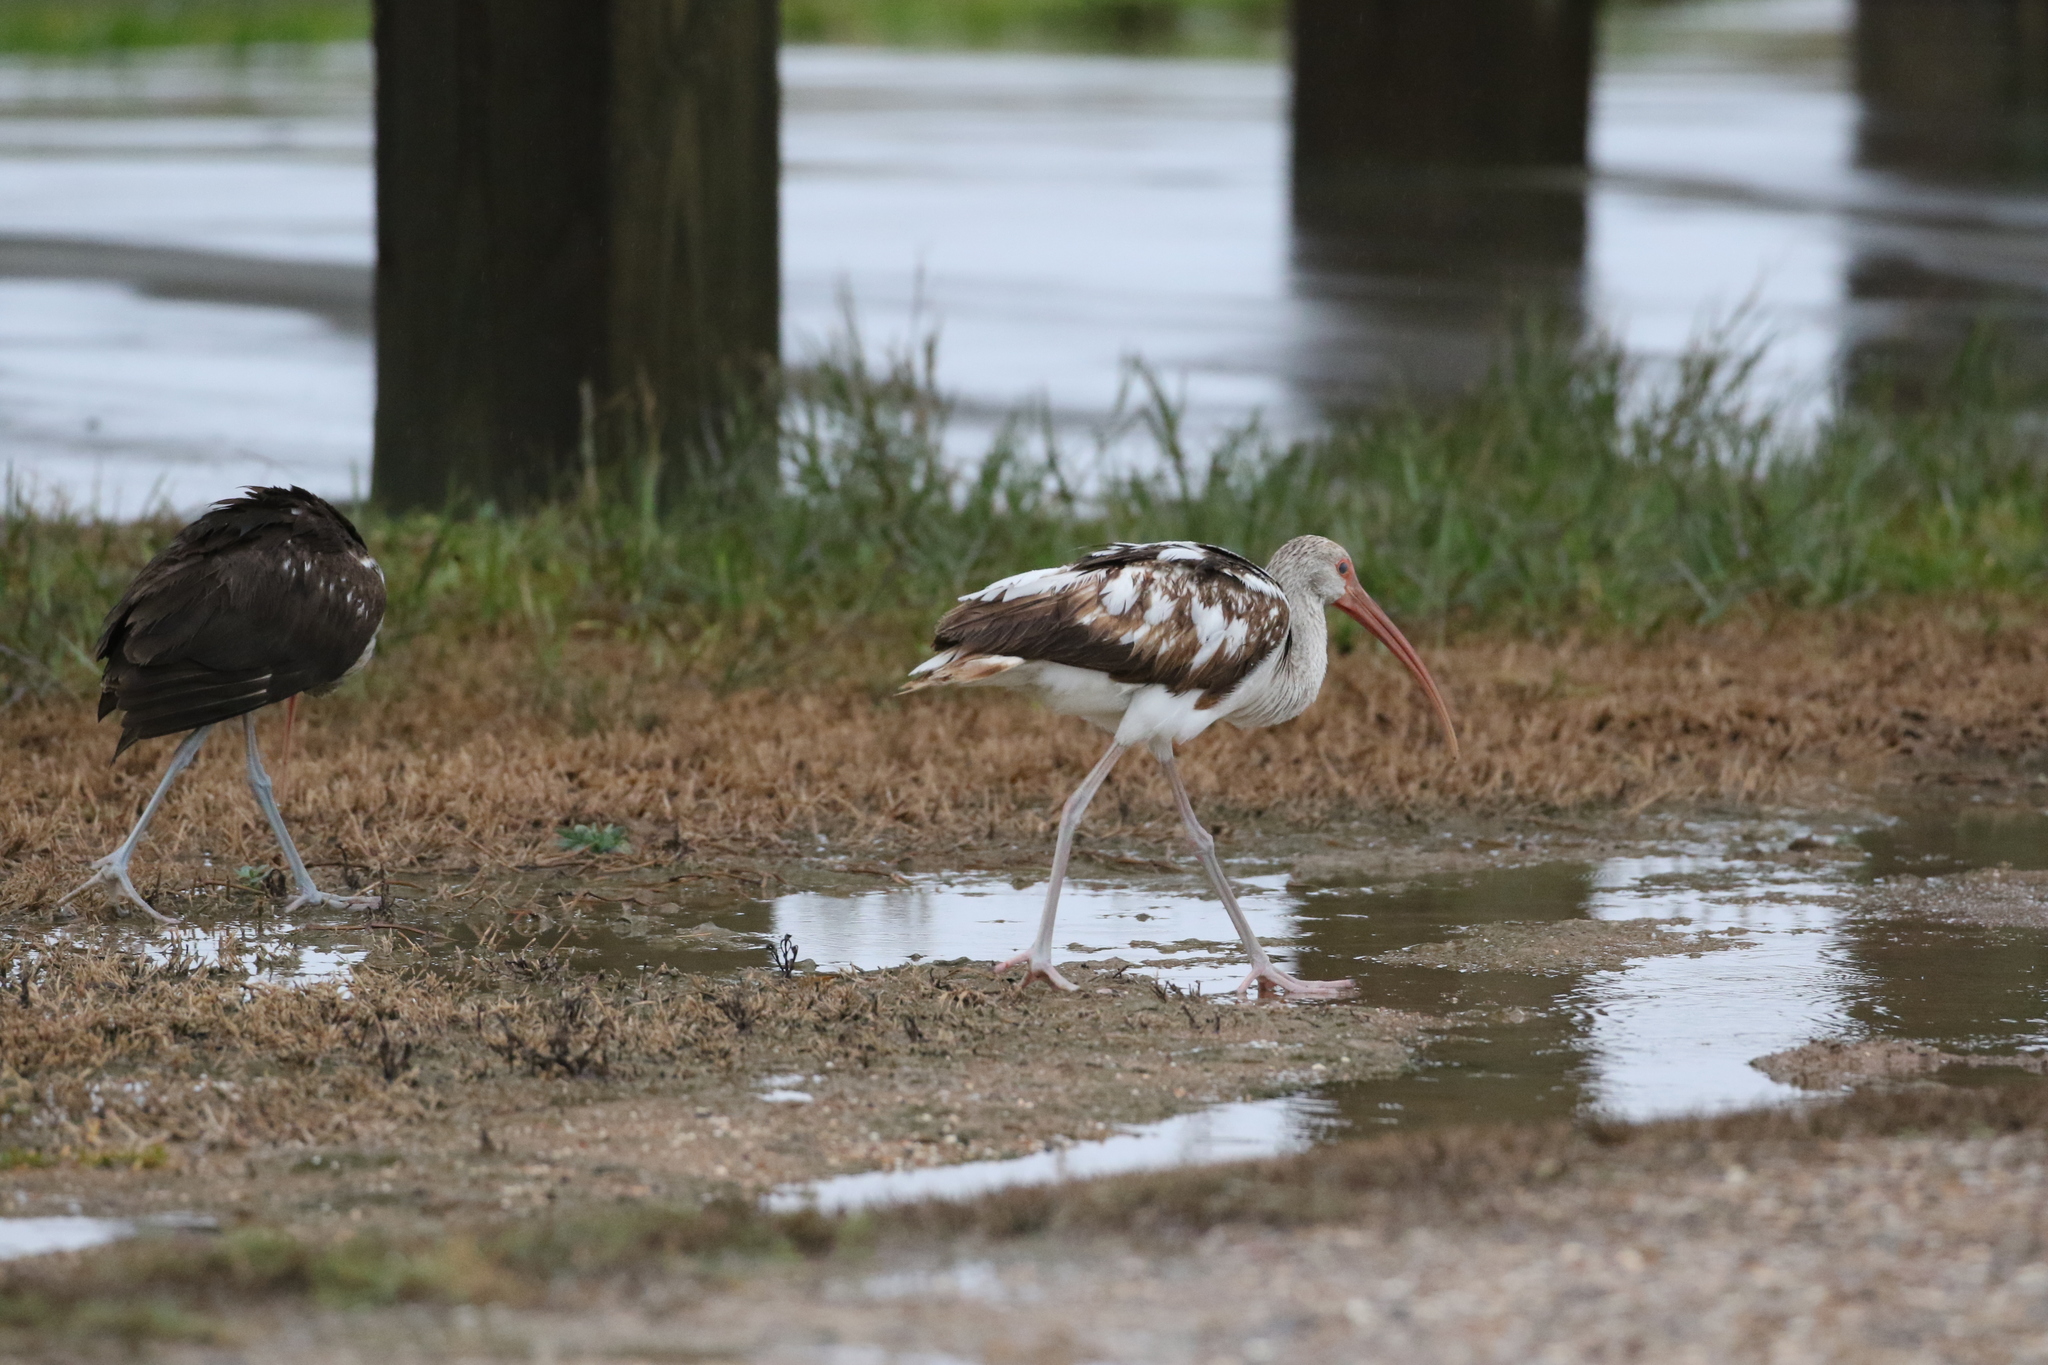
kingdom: Animalia
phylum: Chordata
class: Aves
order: Pelecaniformes
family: Threskiornithidae
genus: Eudocimus
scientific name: Eudocimus albus
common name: White ibis
